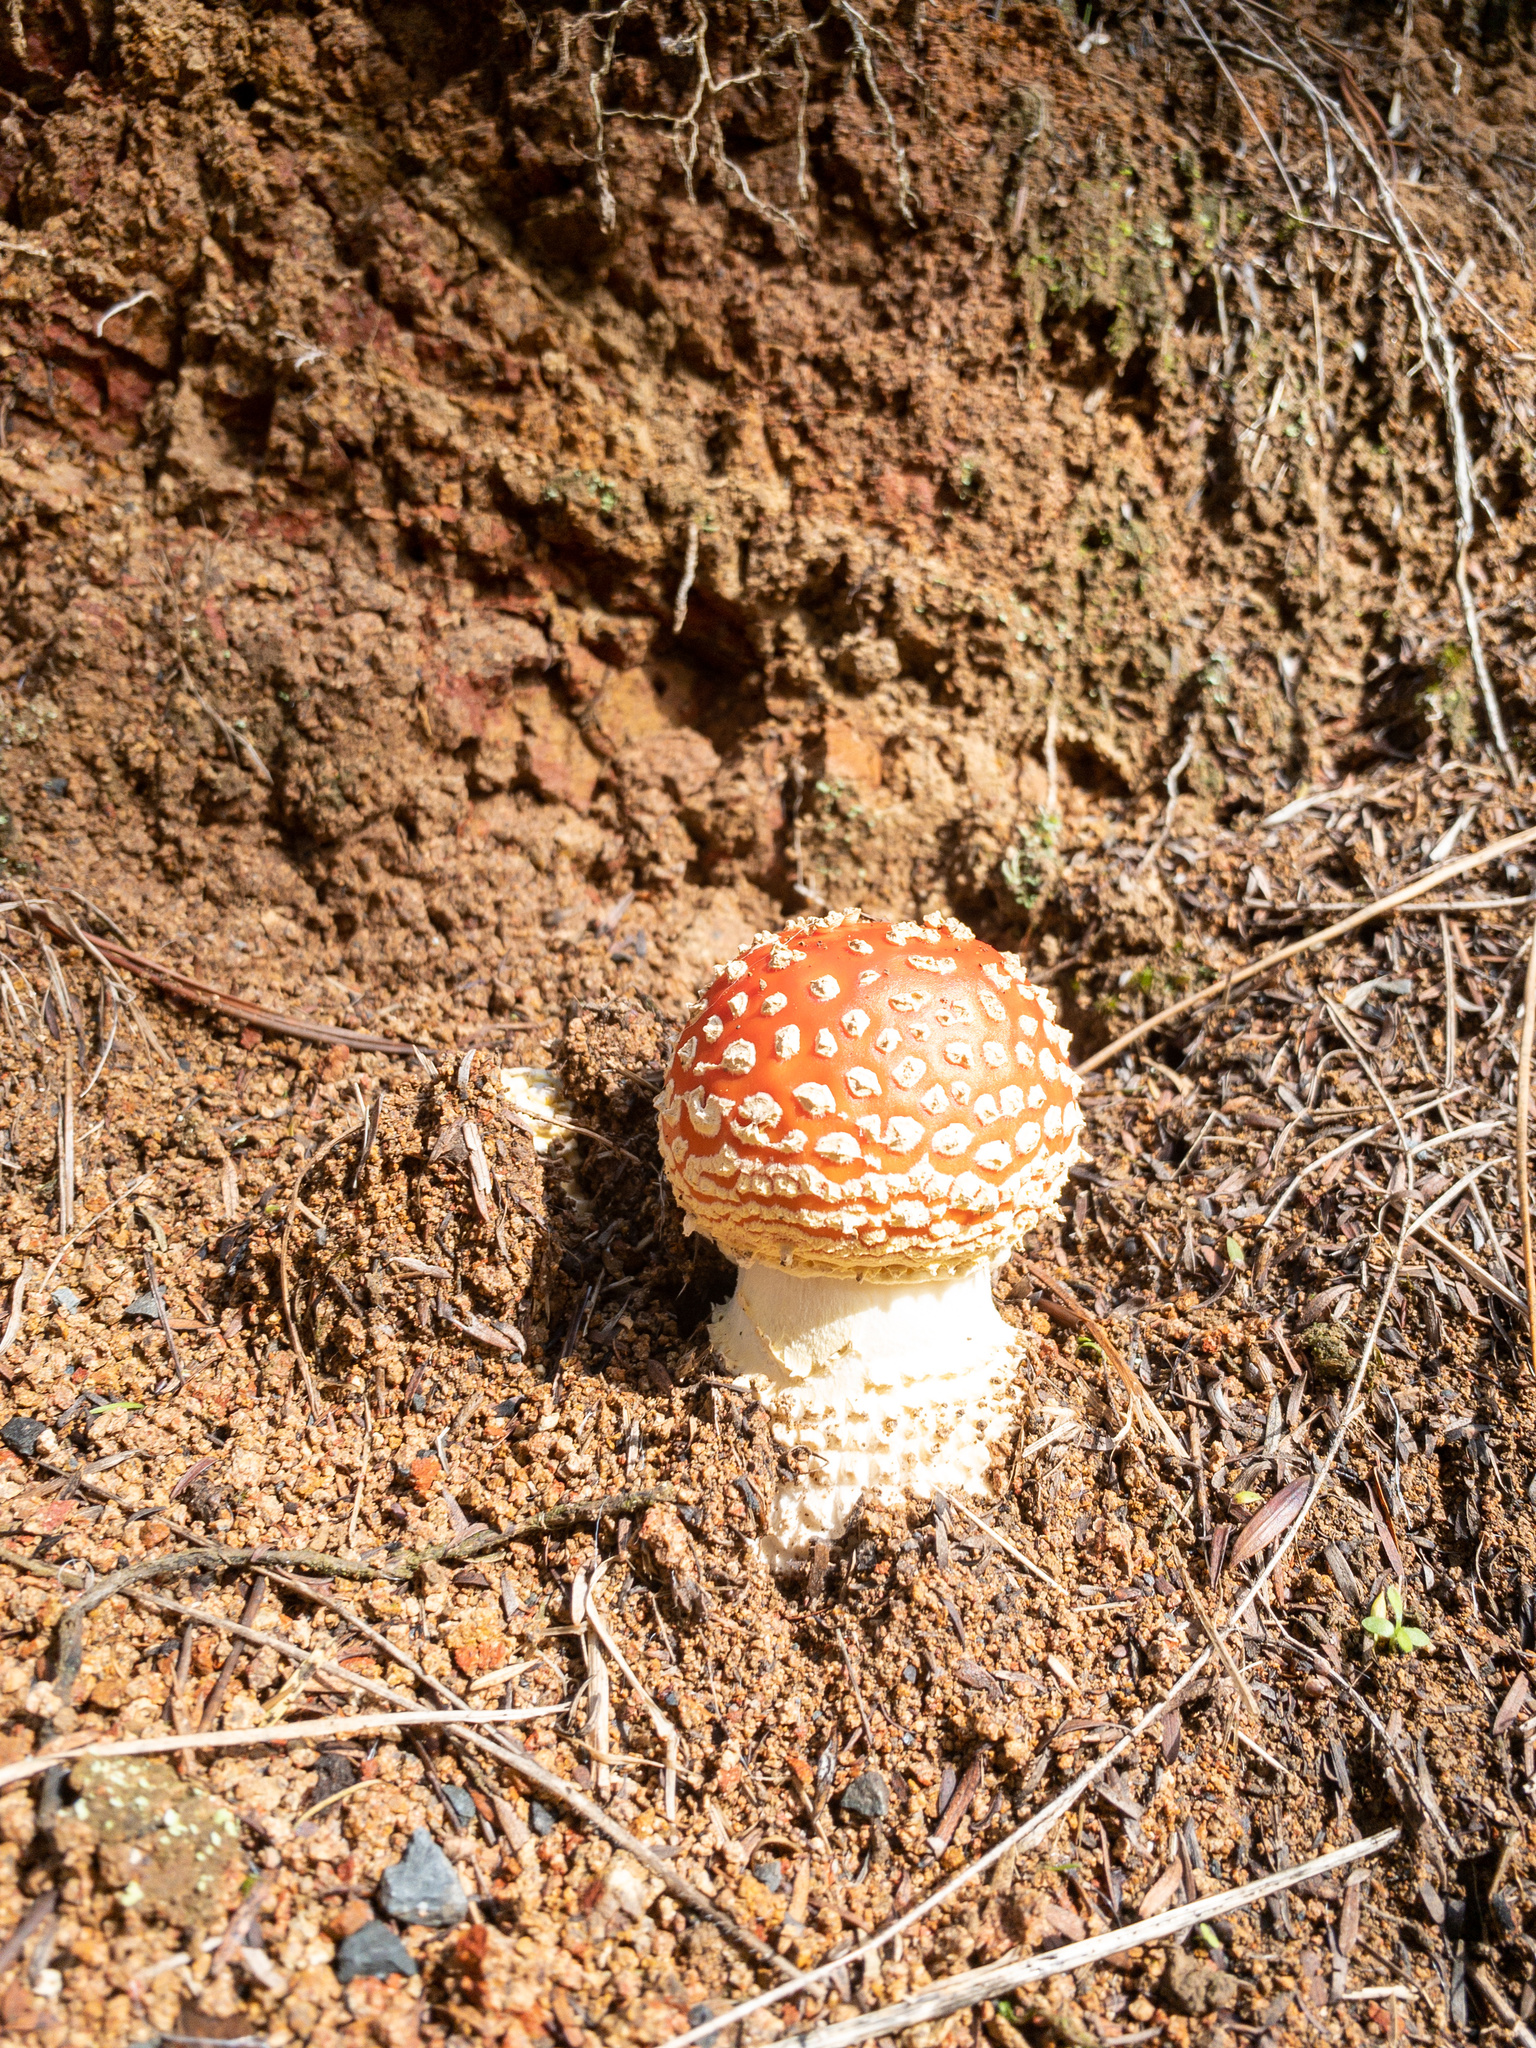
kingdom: Fungi
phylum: Basidiomycota
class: Agaricomycetes
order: Agaricales
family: Amanitaceae
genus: Amanita
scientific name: Amanita muscaria
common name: Fly agaric
